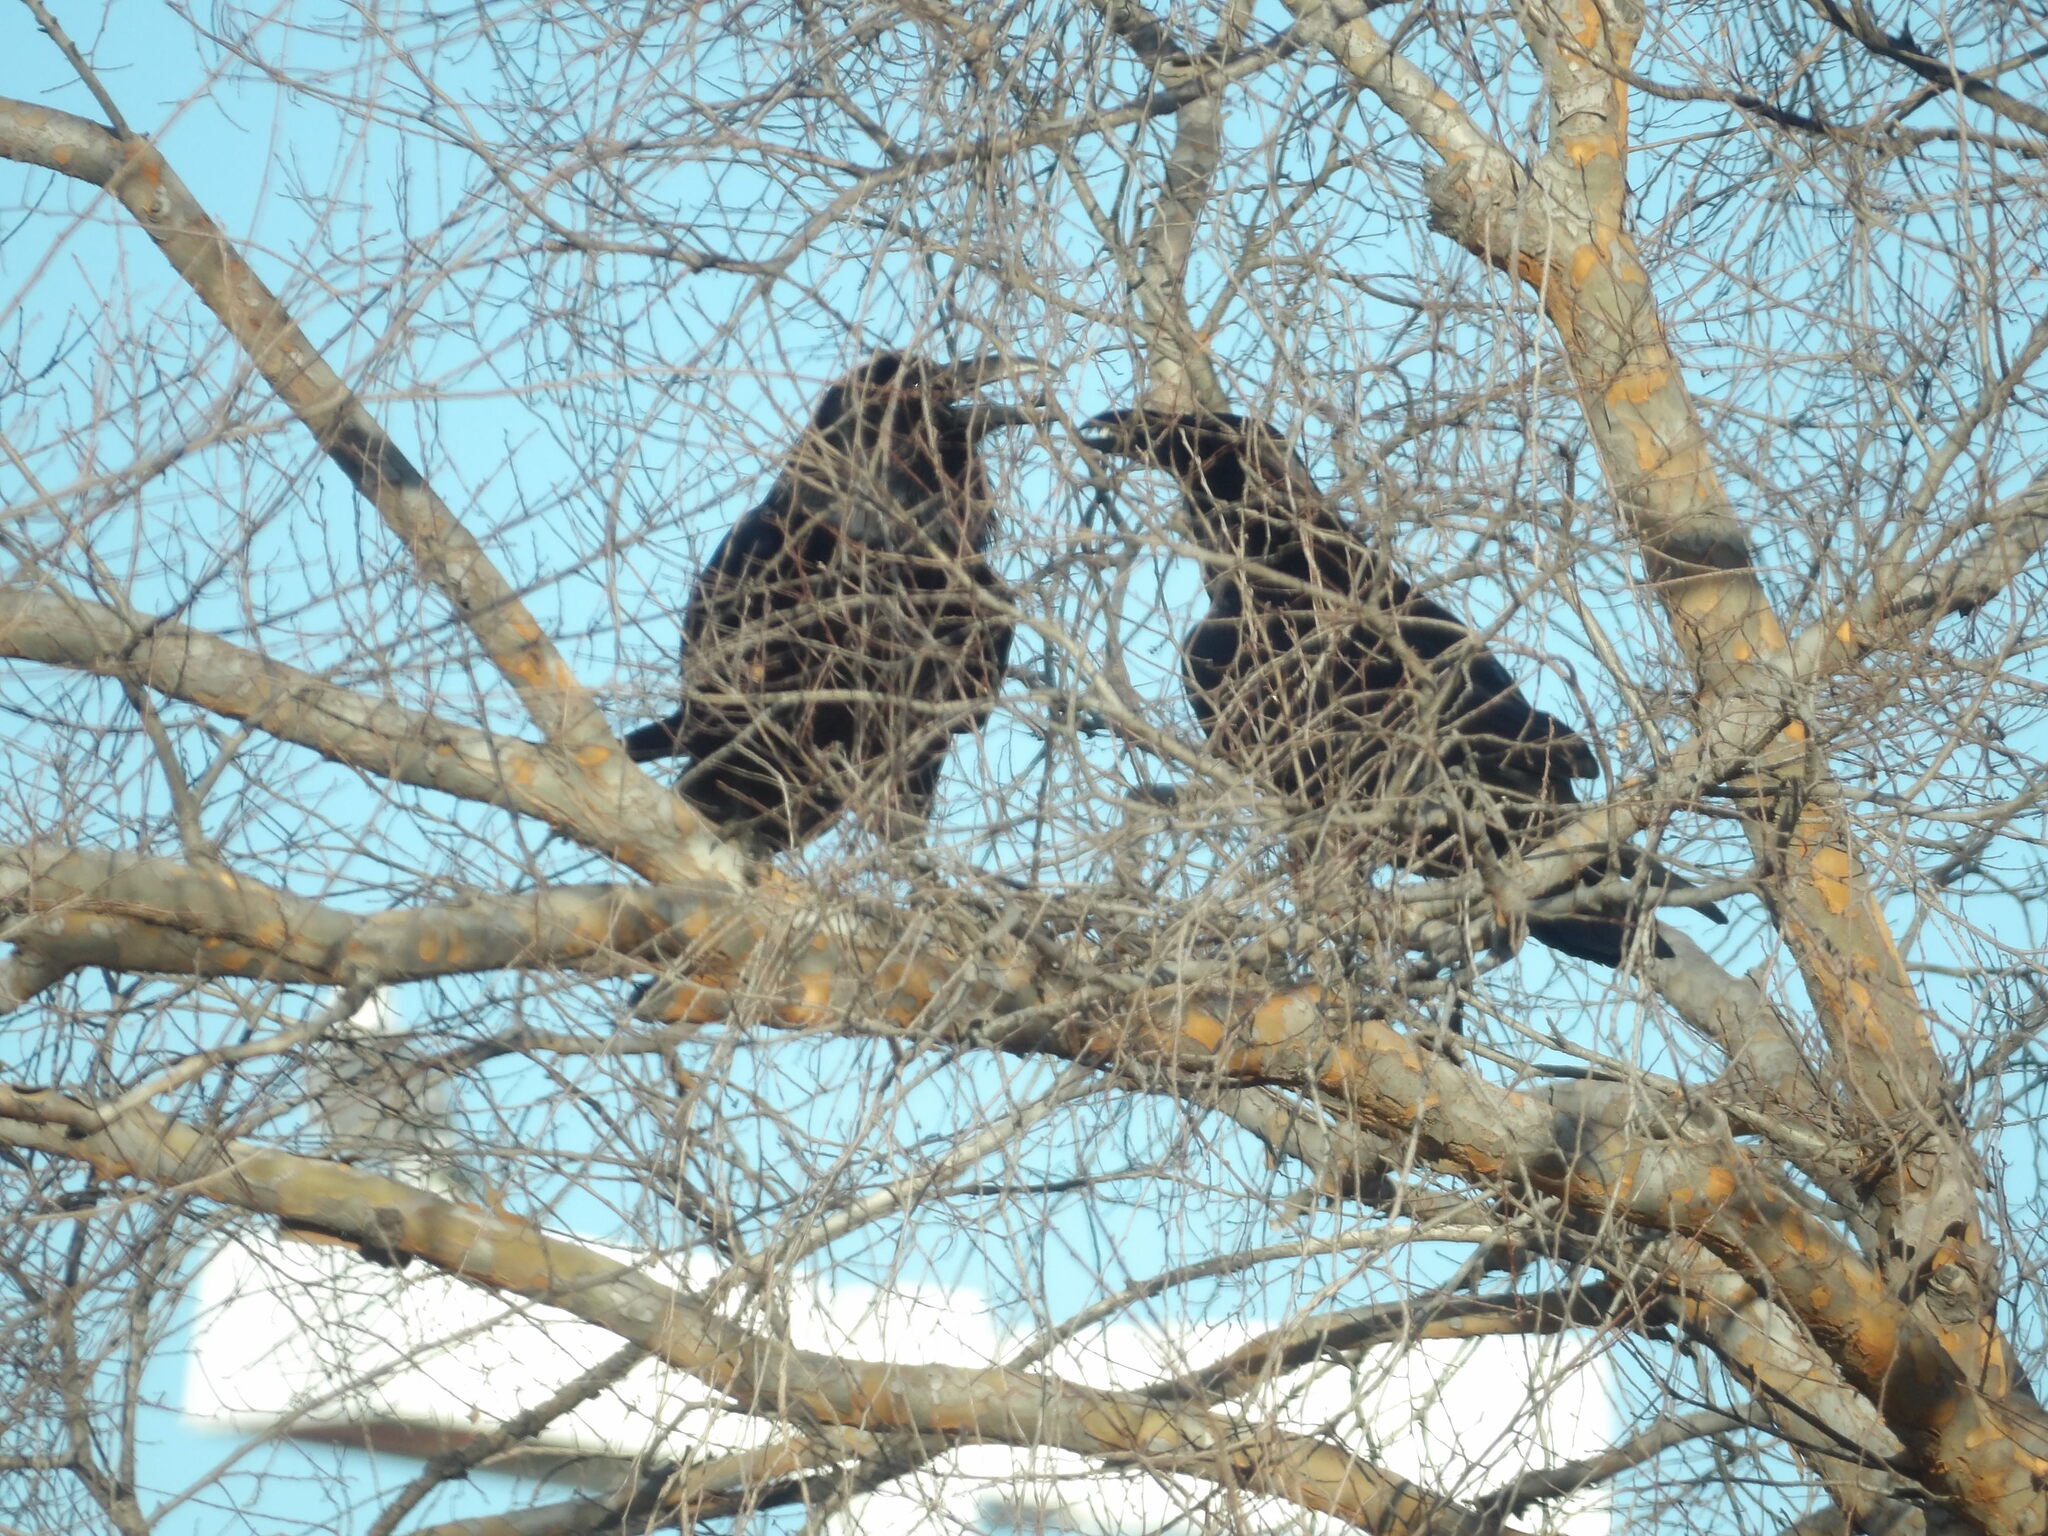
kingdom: Animalia
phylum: Chordata
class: Aves
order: Passeriformes
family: Corvidae
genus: Corvus
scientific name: Corvus corax
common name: Common raven
